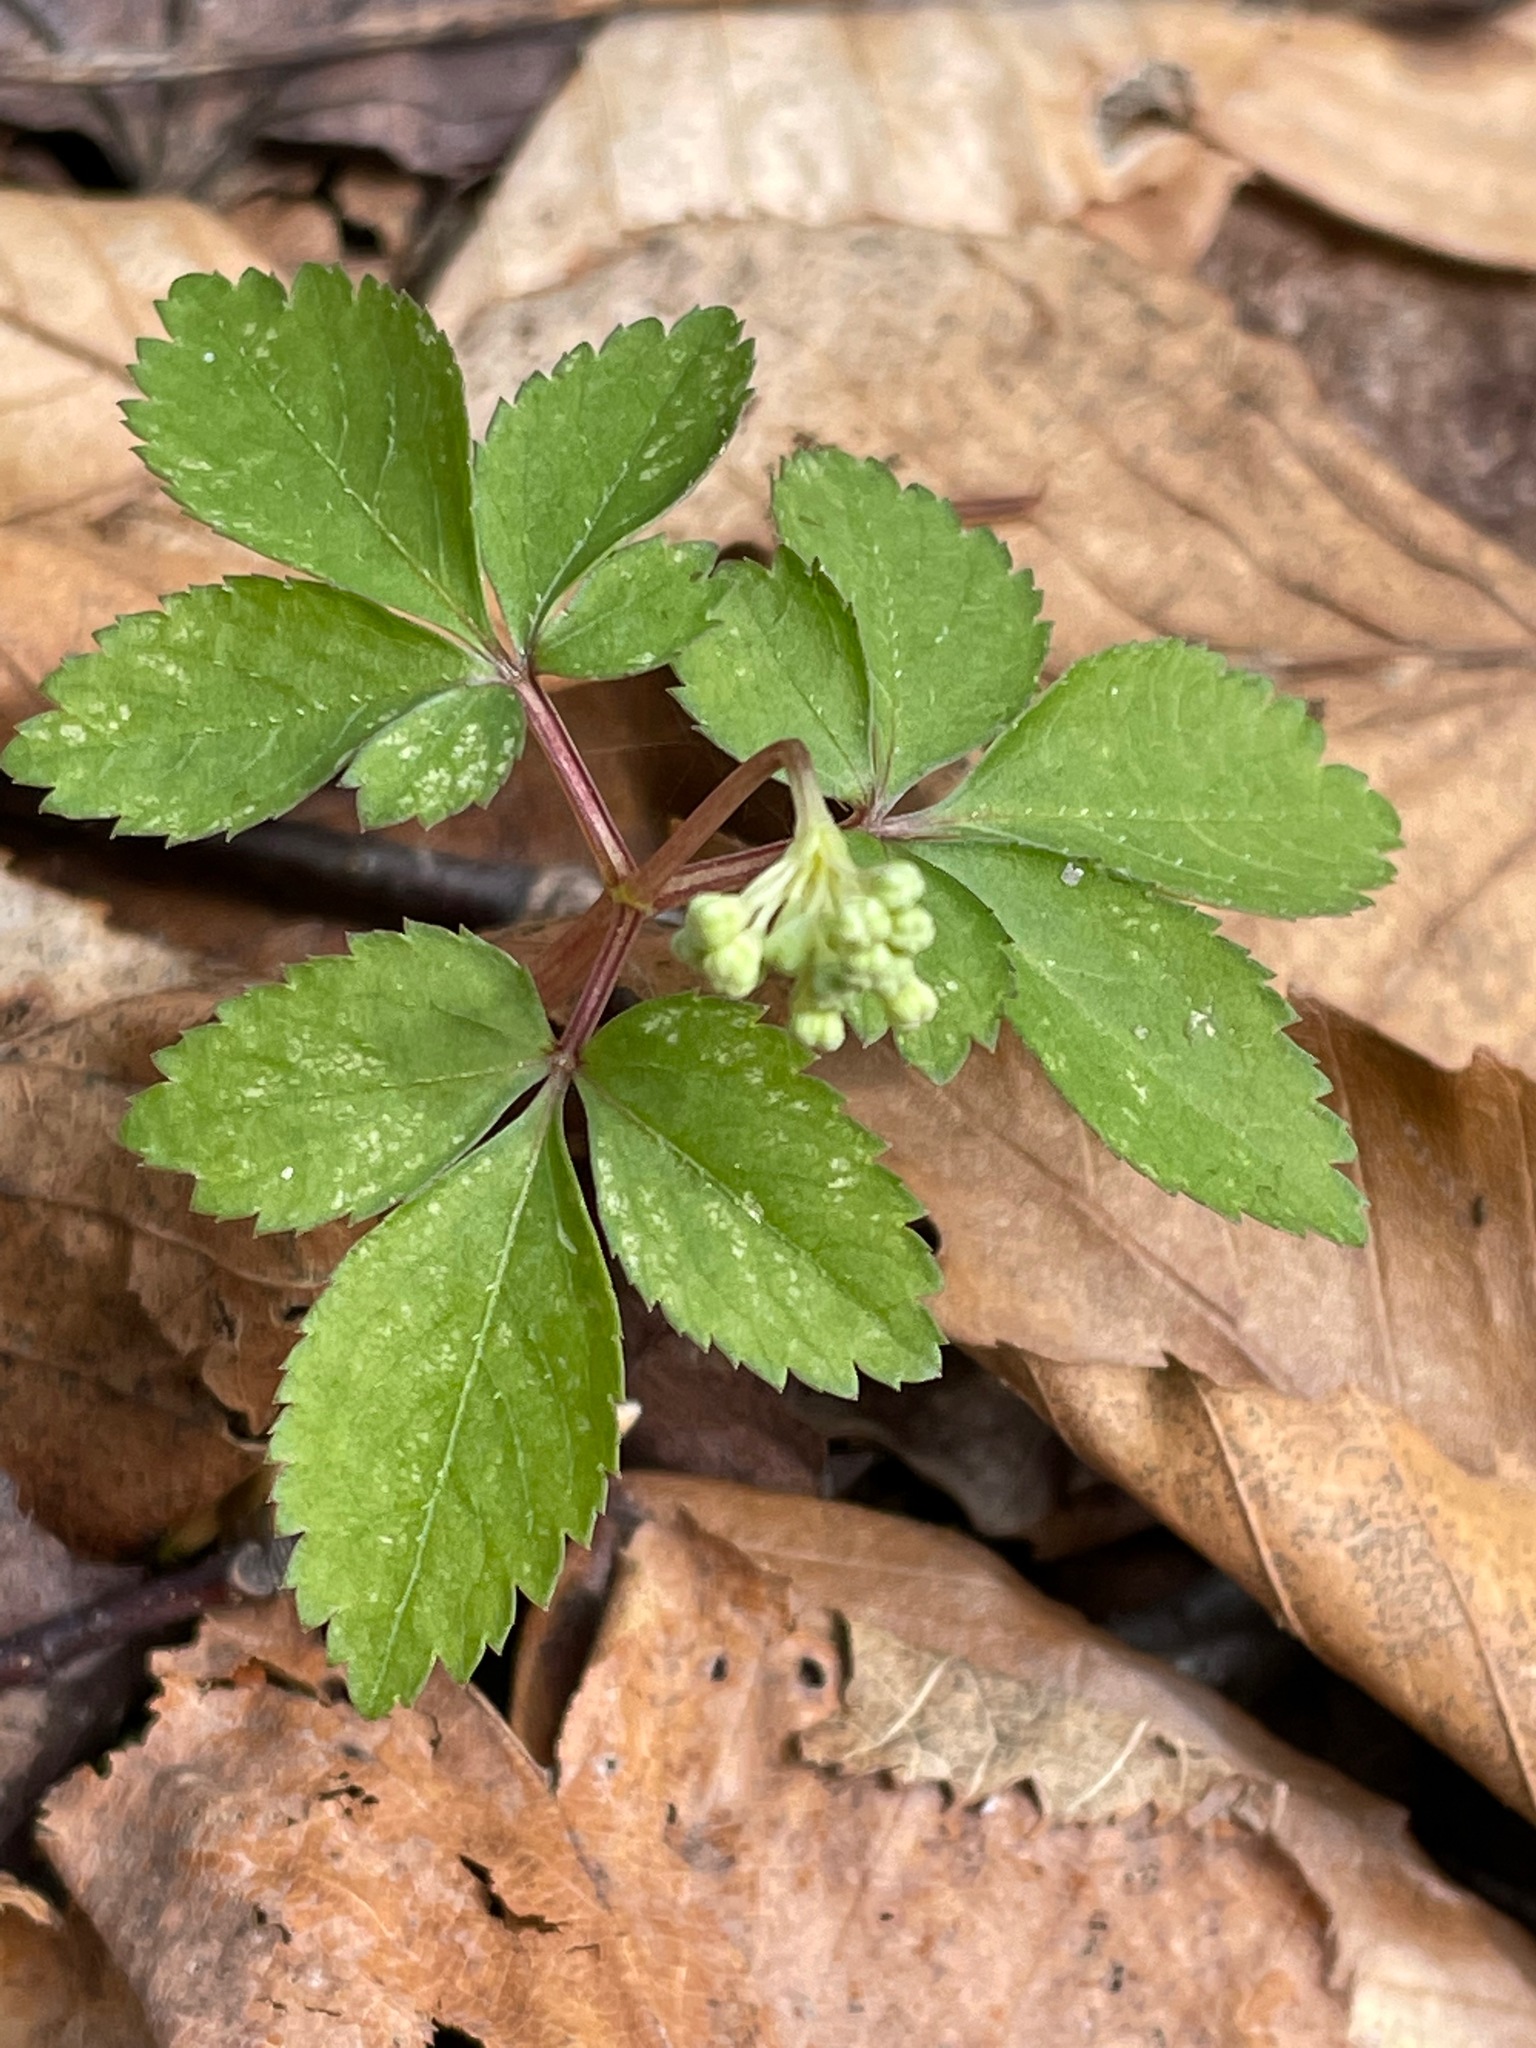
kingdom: Plantae
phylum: Tracheophyta
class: Magnoliopsida
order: Apiales
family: Araliaceae
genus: Panax
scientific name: Panax trifolius
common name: Dwarf ginseng
